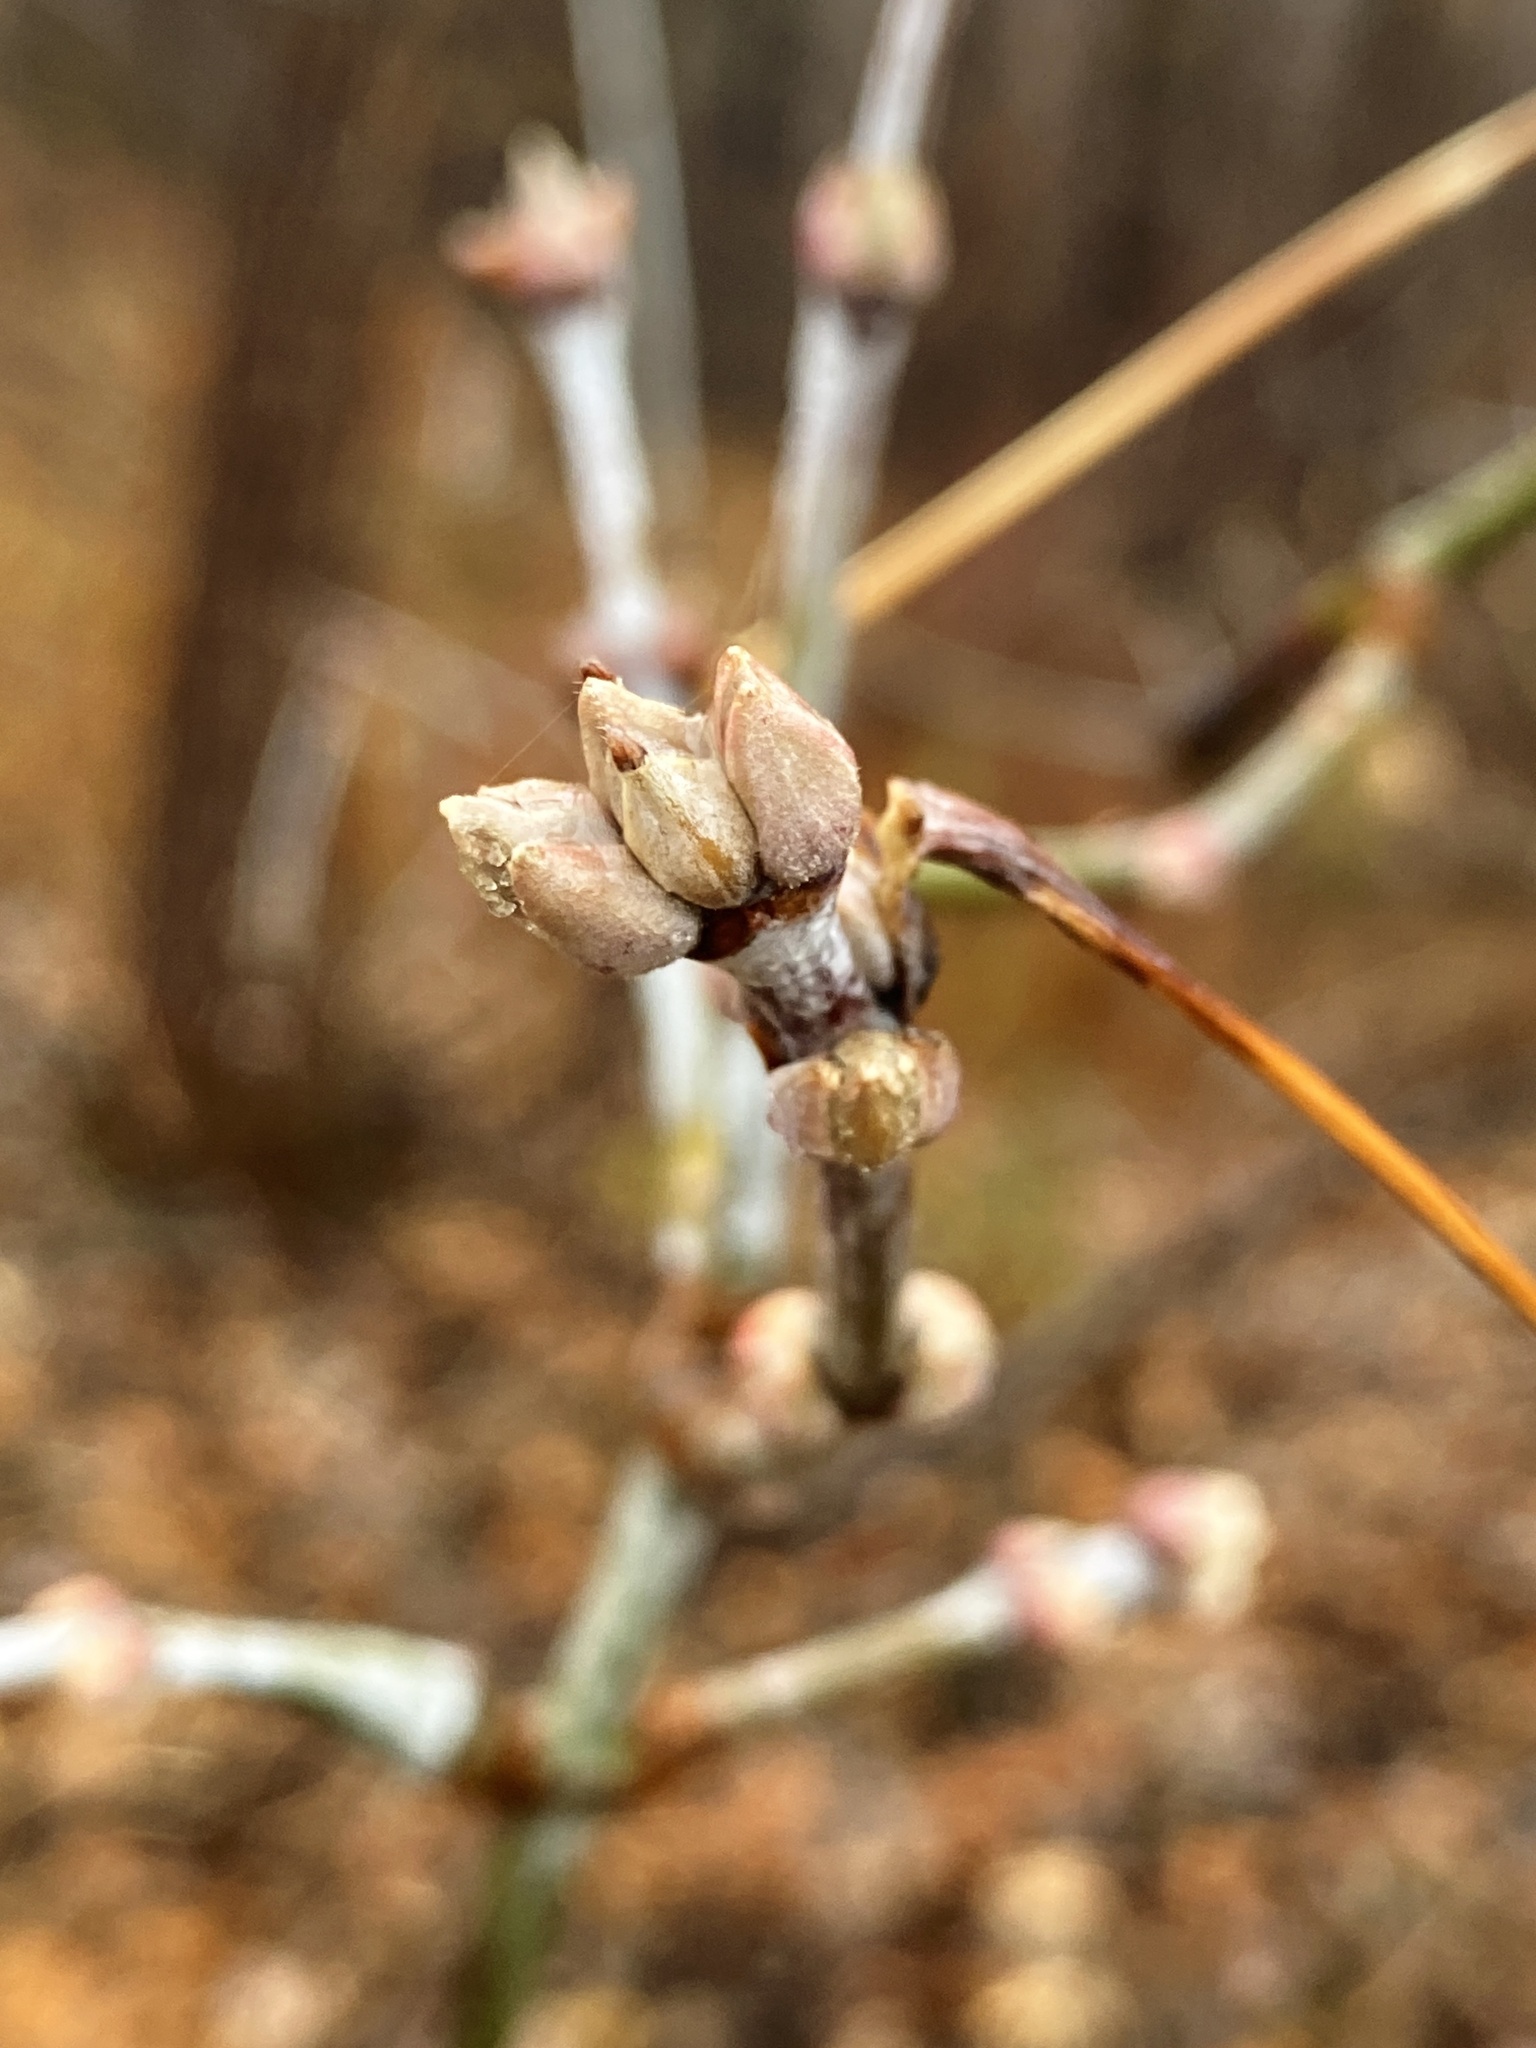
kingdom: Plantae
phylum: Tracheophyta
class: Magnoliopsida
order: Sapindales
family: Sapindaceae
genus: Acer
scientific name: Acer negundo
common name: Ashleaf maple
